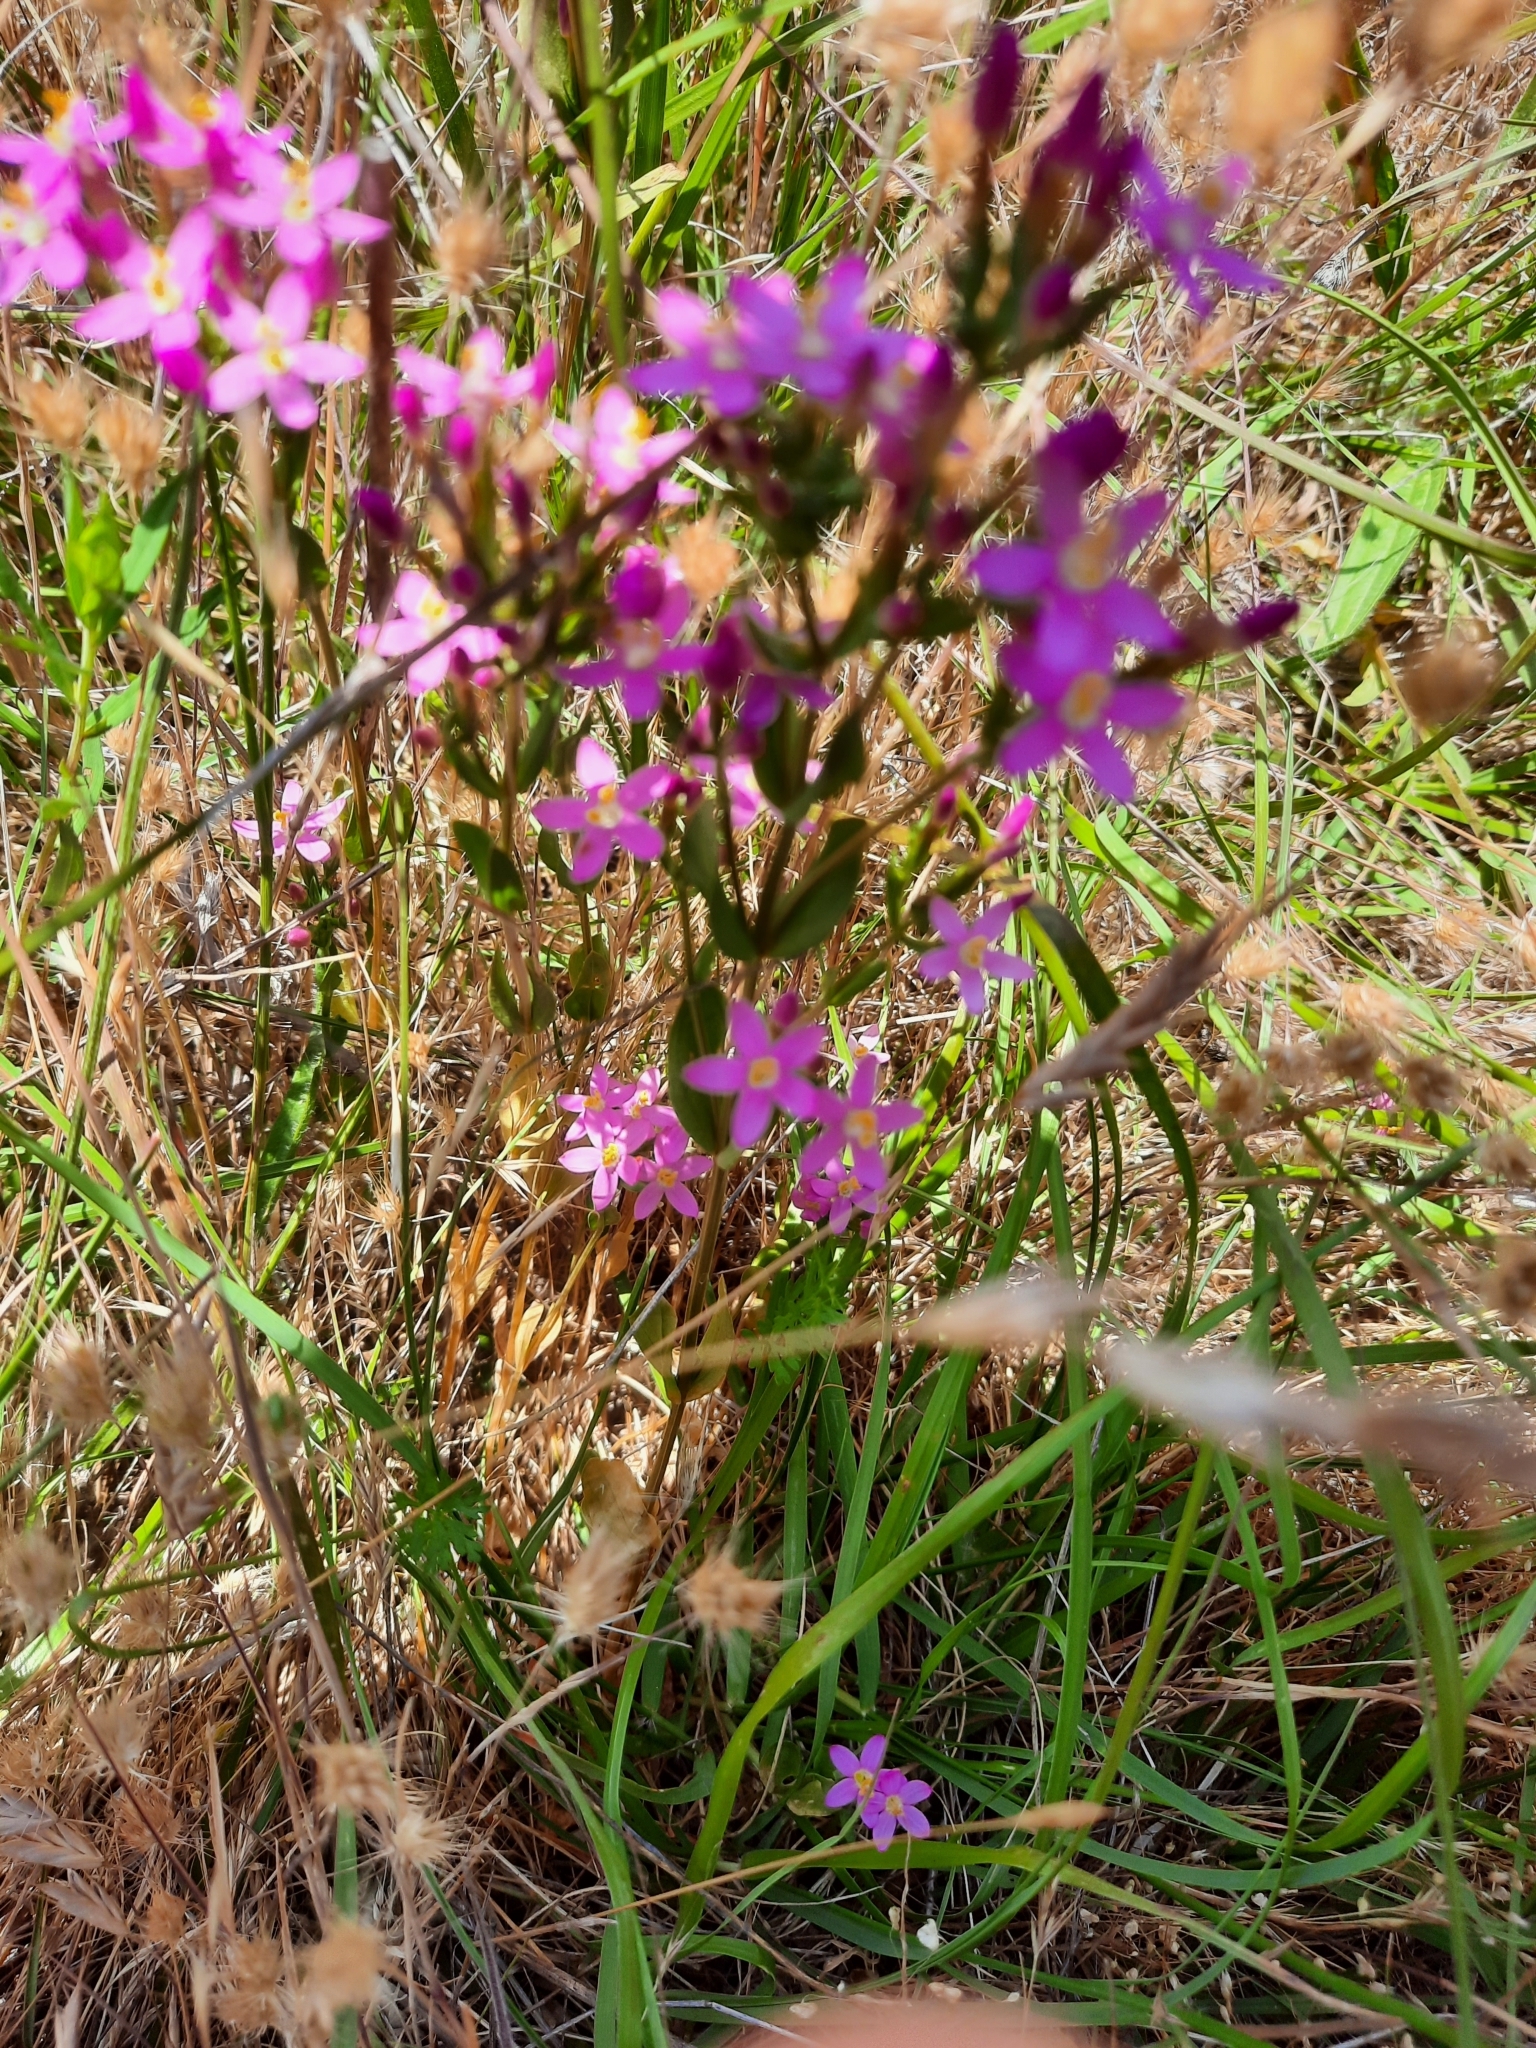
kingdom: Plantae
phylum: Tracheophyta
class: Magnoliopsida
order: Gentianales
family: Gentianaceae
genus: Centaurium
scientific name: Centaurium erythraea
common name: Common centaury
